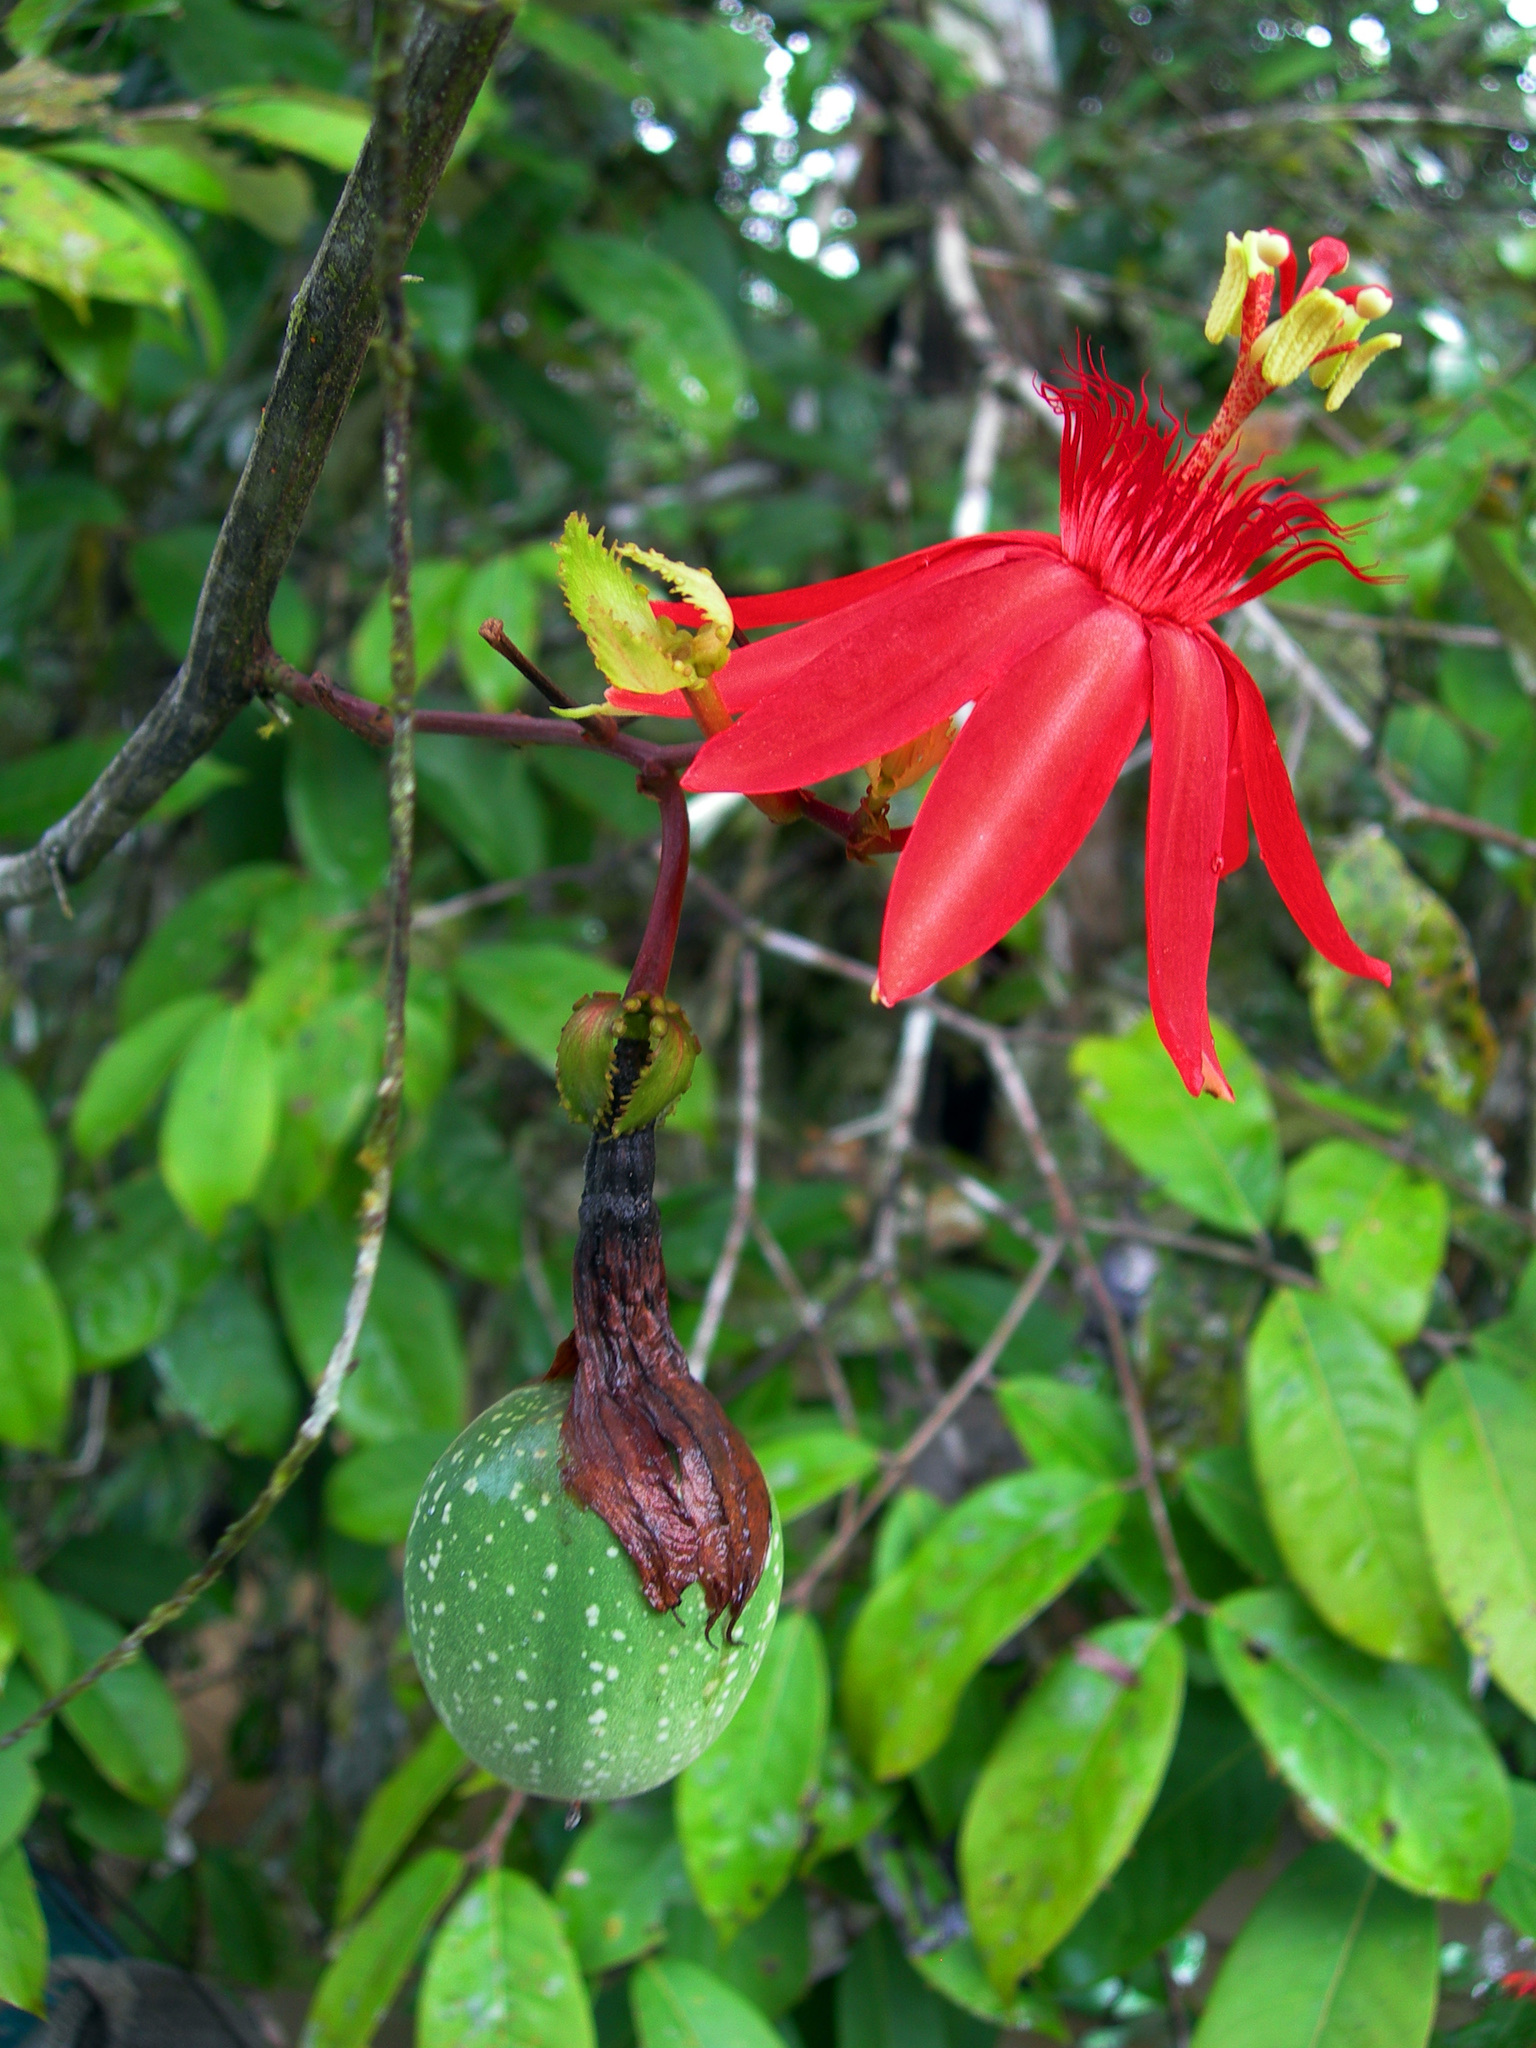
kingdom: Plantae
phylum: Tracheophyta
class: Magnoliopsida
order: Malpighiales
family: Passifloraceae
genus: Passiflora
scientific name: Passiflora punicea
